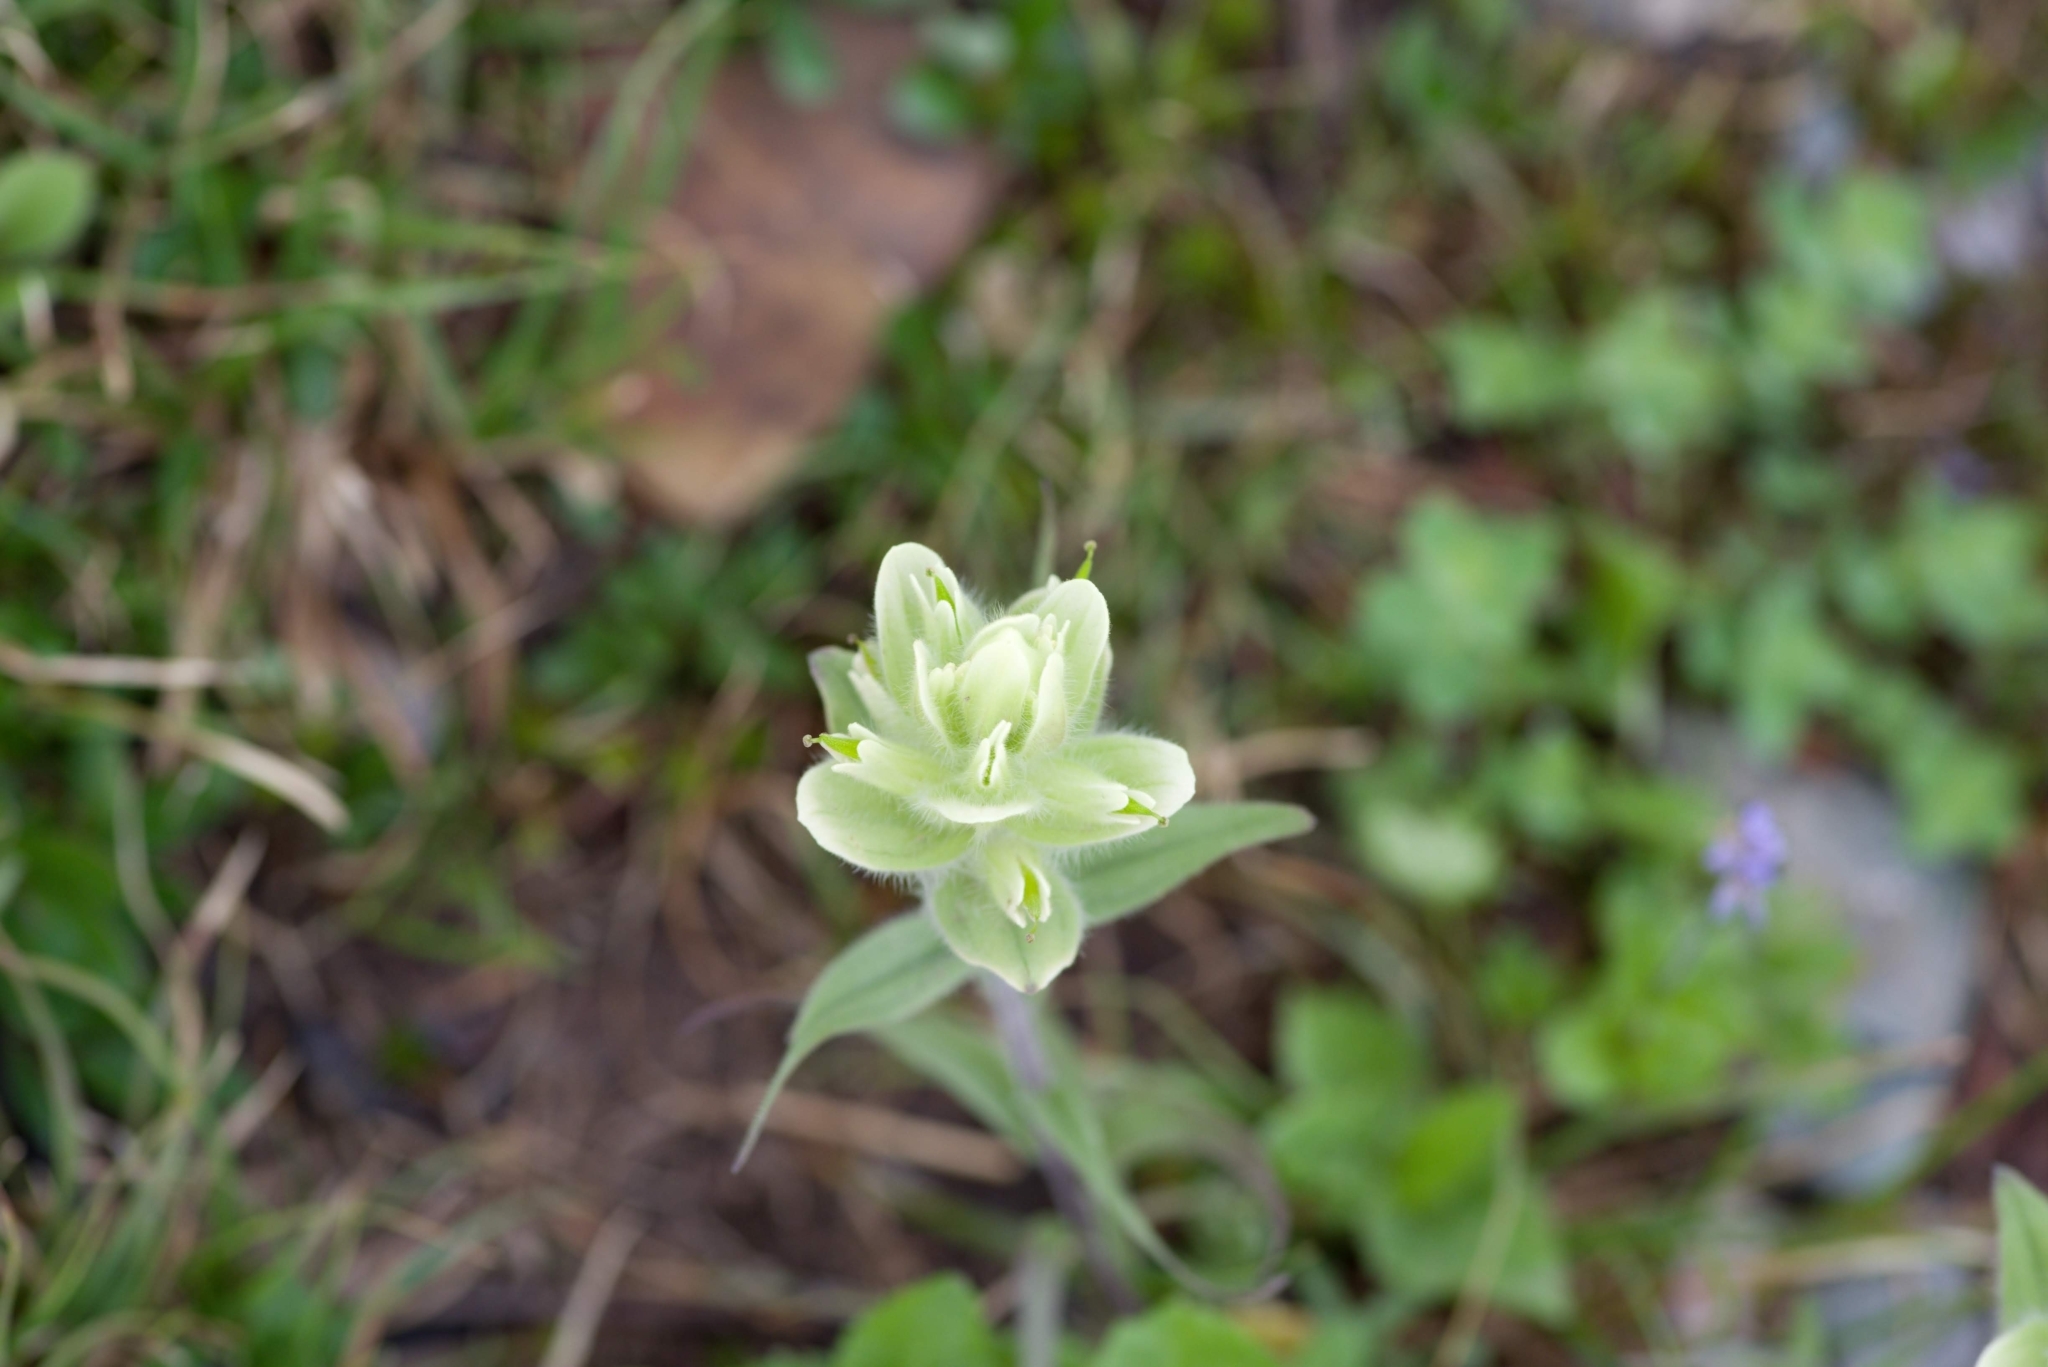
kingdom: Plantae
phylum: Tracheophyta
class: Magnoliopsida
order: Lamiales
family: Orobanchaceae
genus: Castilleja
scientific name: Castilleja occidentalis
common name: Western paintbrush
